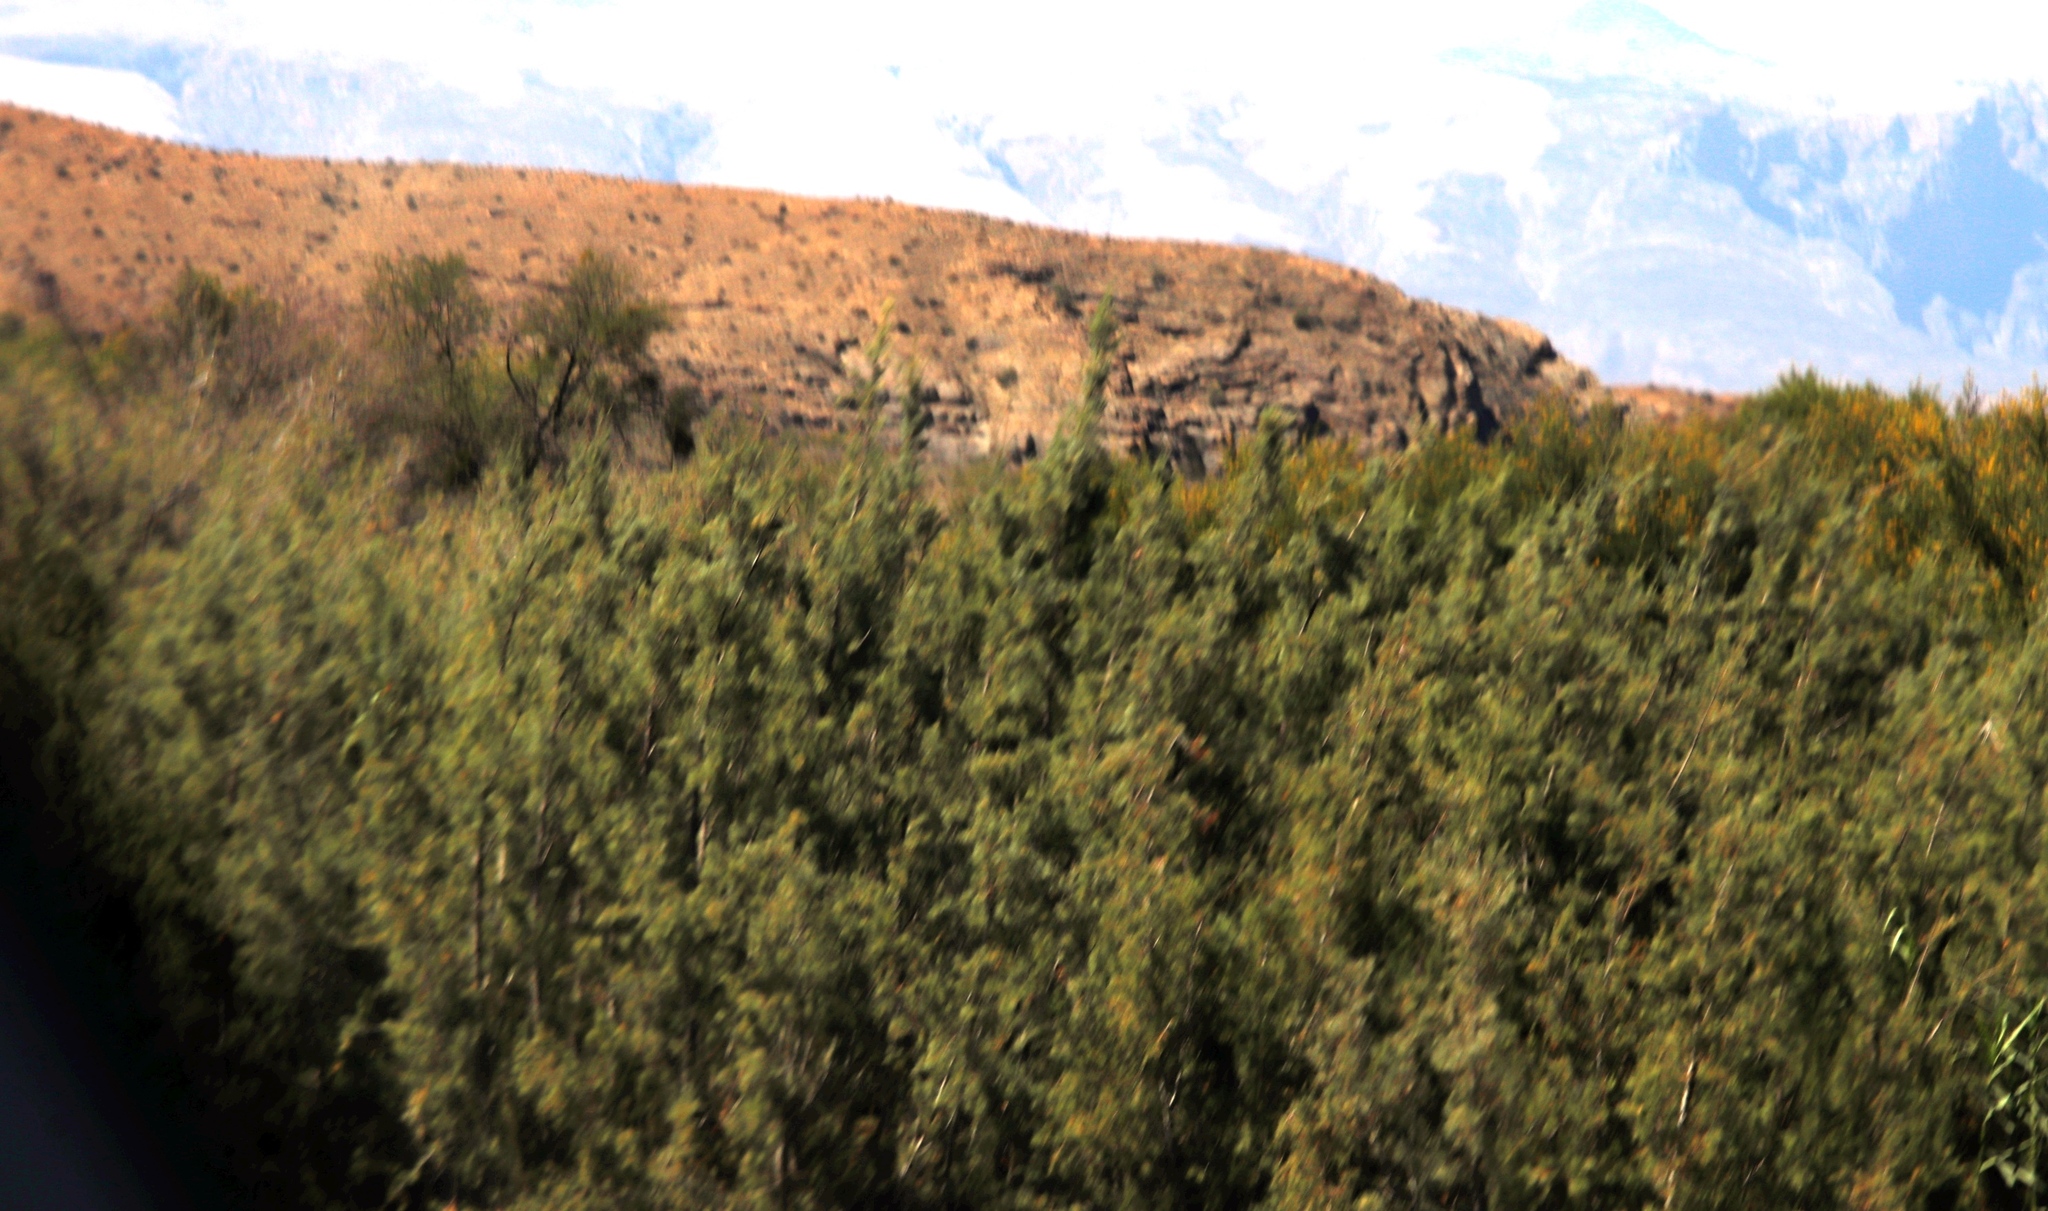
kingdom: Plantae
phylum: Tracheophyta
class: Magnoliopsida
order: Fabales
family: Fabaceae
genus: Vachellia
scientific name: Vachellia karroo
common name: Sweet thorn
